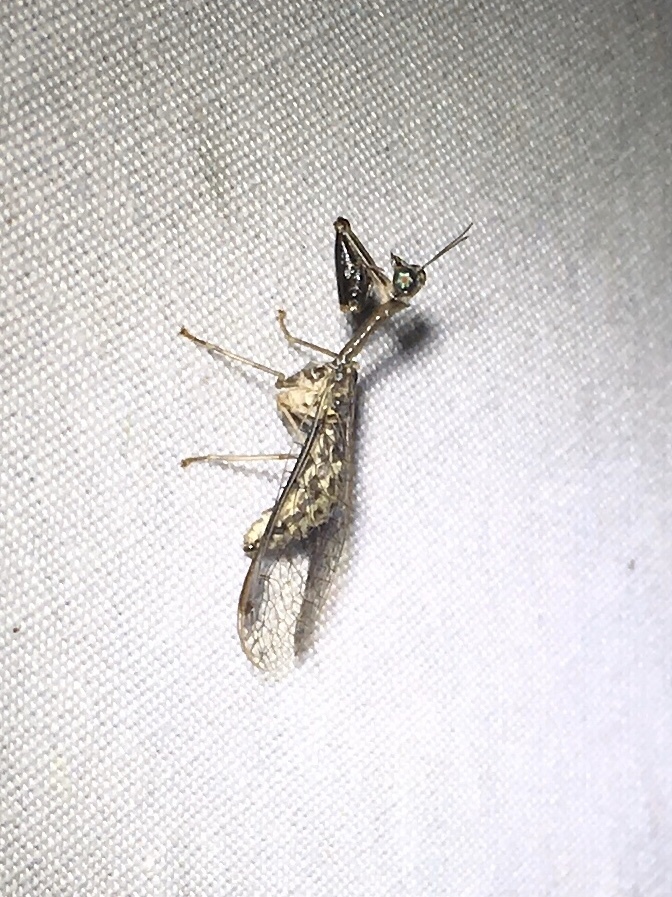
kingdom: Animalia
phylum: Arthropoda
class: Insecta
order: Neuroptera
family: Mantispidae
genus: Dicromantispa
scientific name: Dicromantispa sayi
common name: Say's mantidfly
